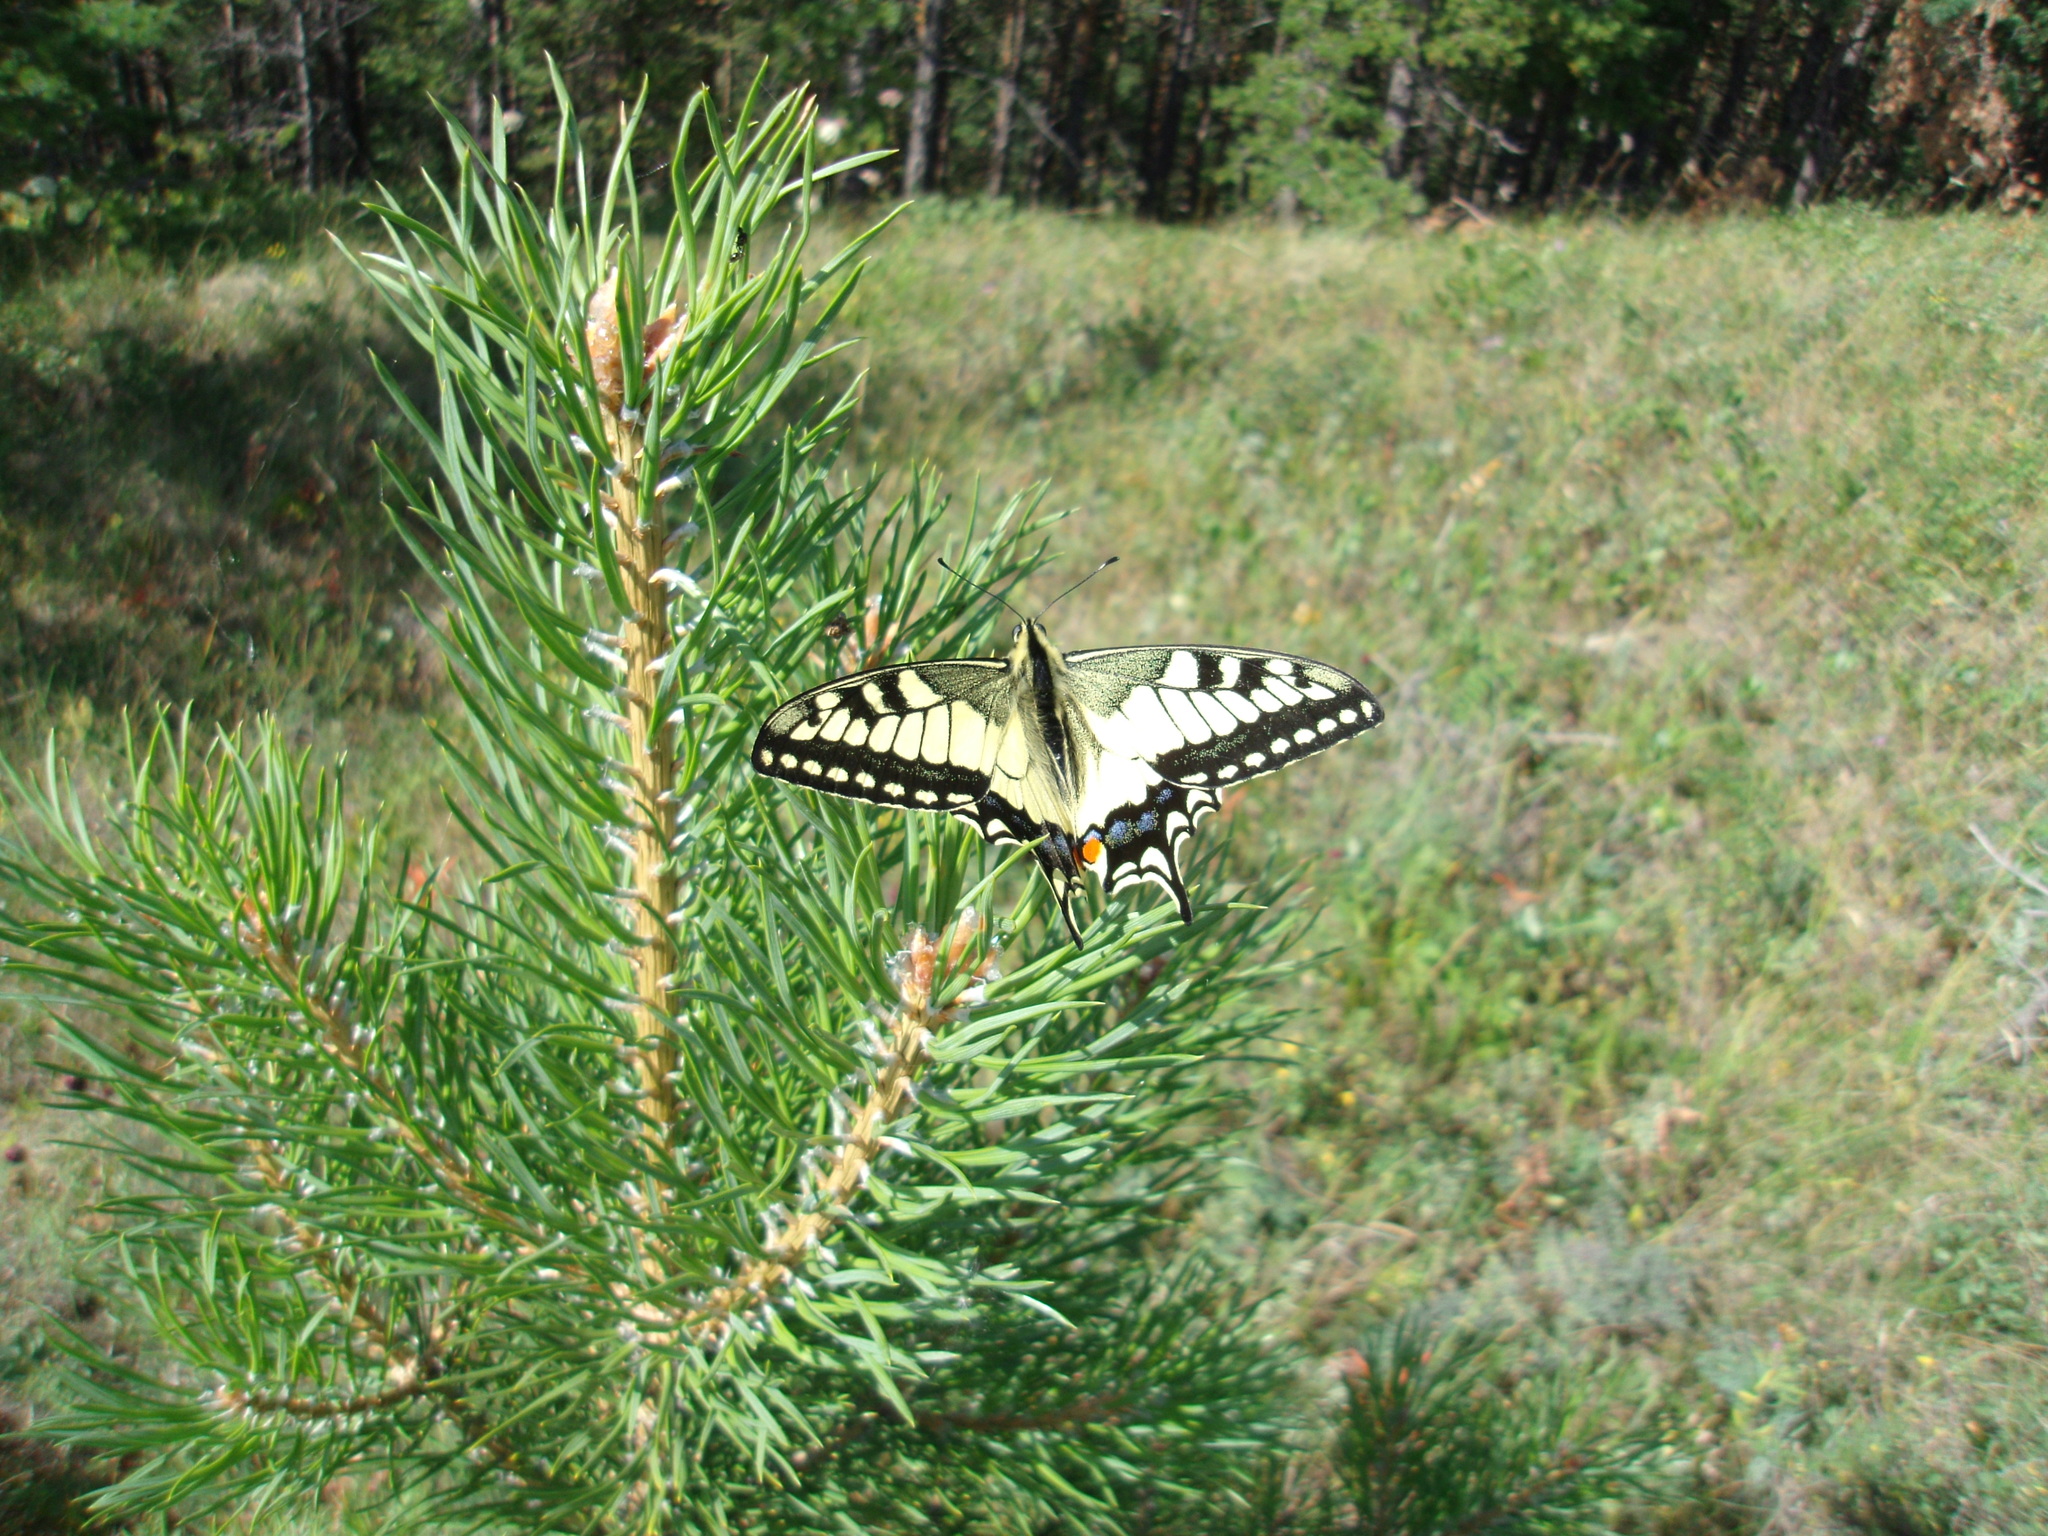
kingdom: Animalia
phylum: Arthropoda
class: Insecta
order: Lepidoptera
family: Papilionidae
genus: Papilio
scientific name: Papilio machaon
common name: Swallowtail
